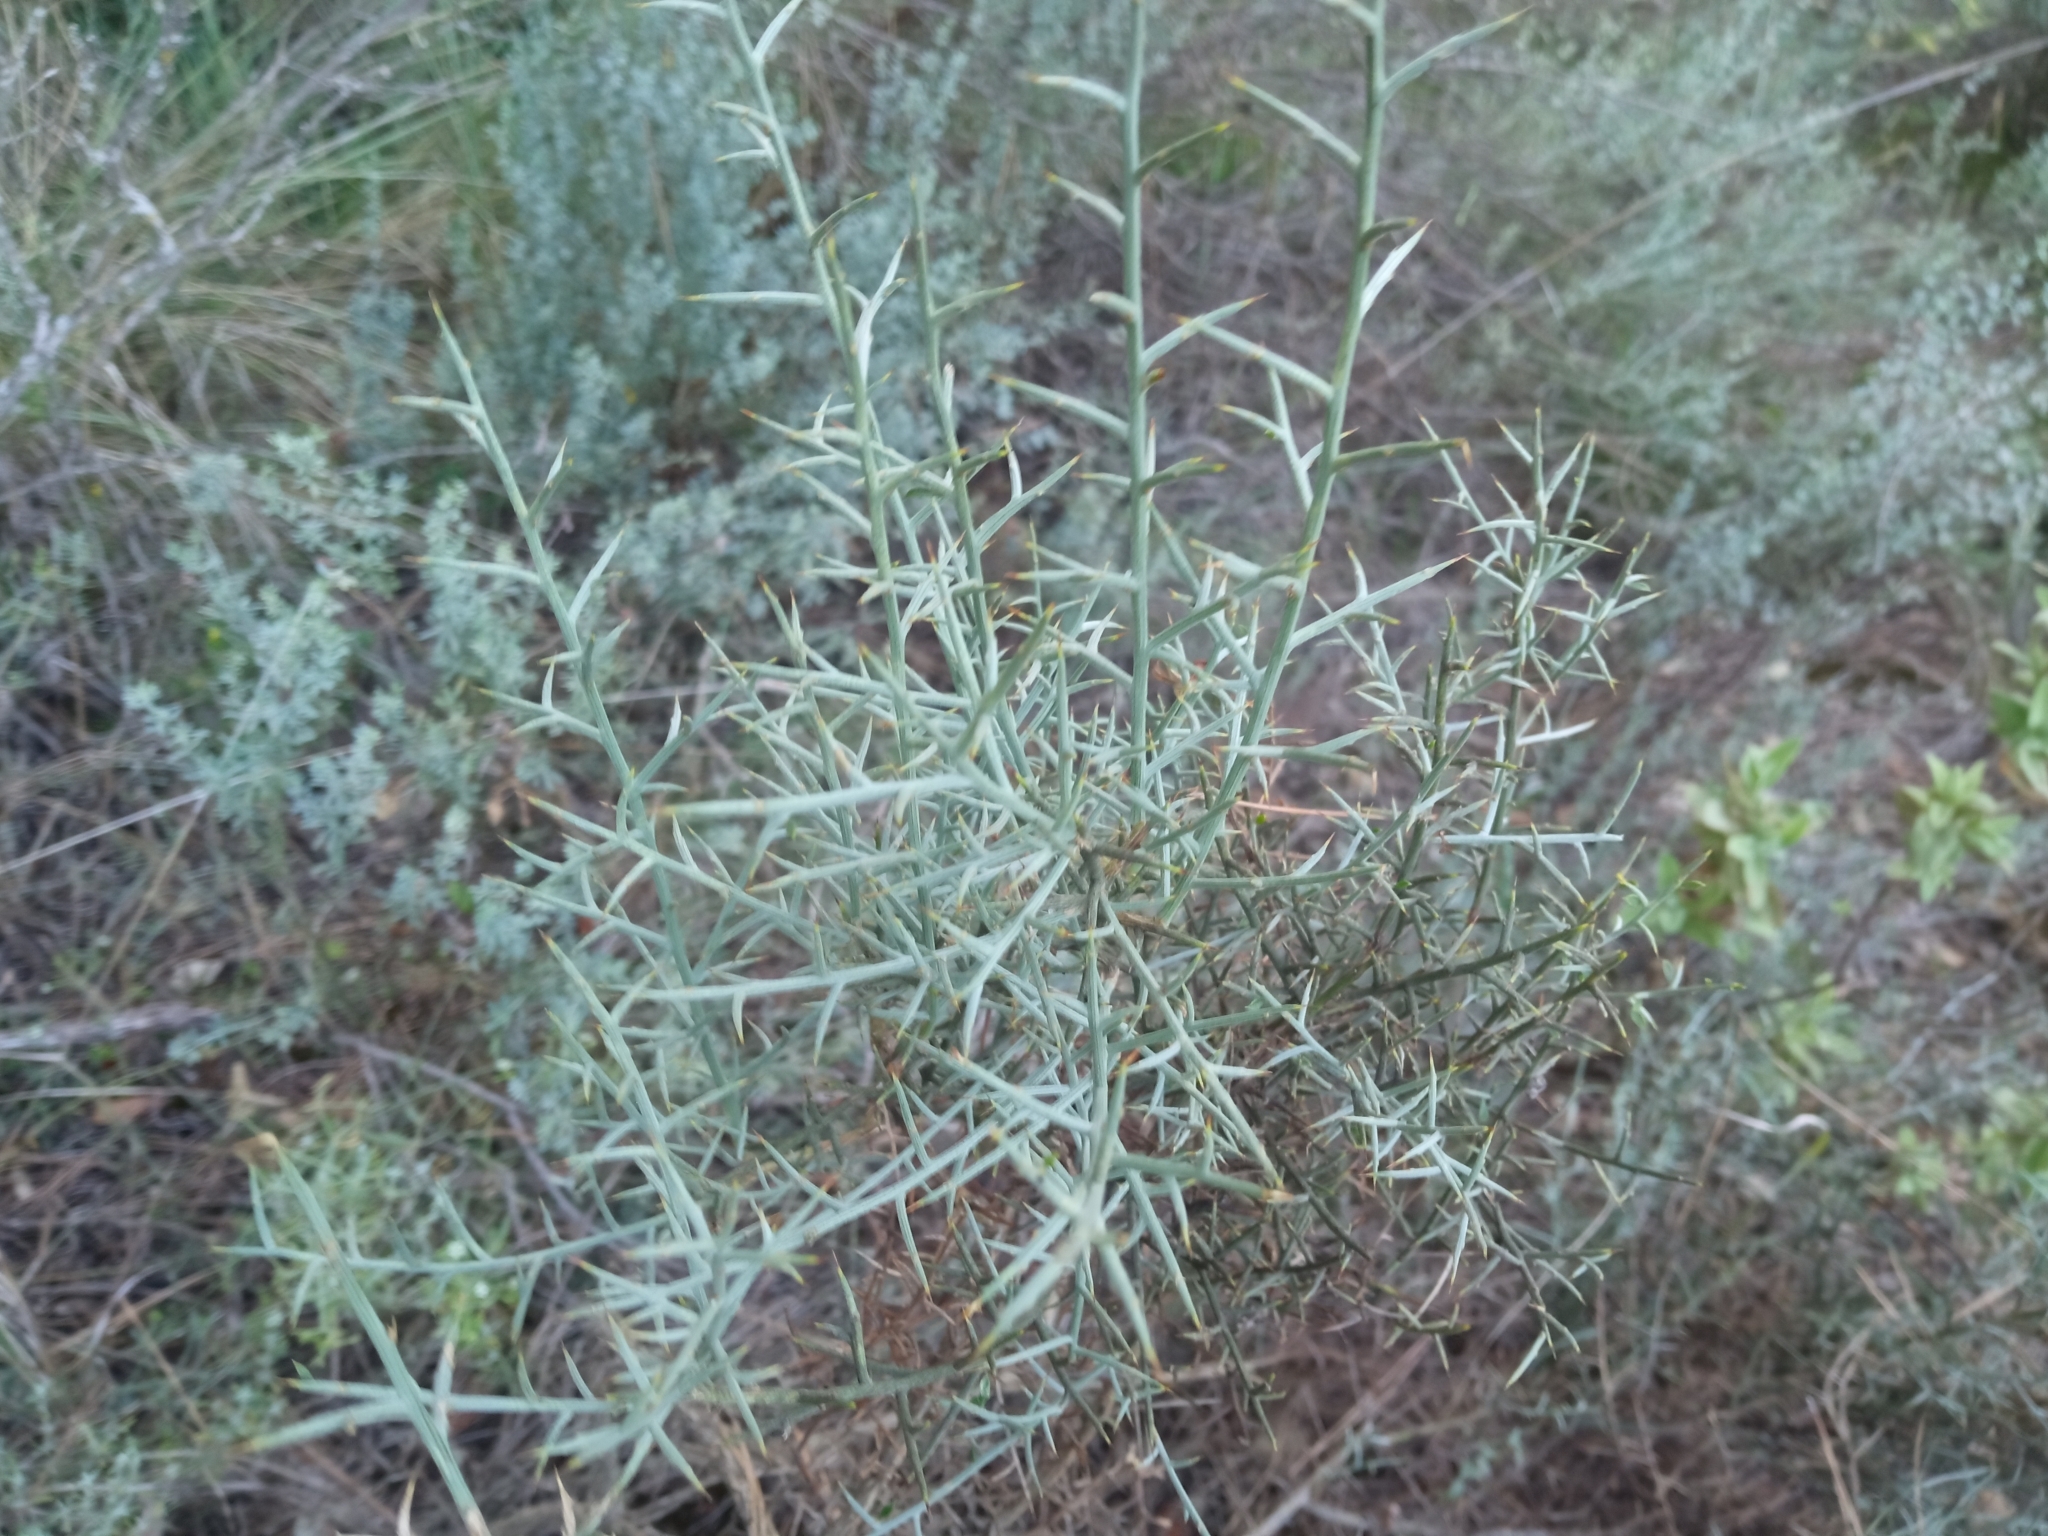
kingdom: Plantae
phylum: Tracheophyta
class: Magnoliopsida
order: Fabales
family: Fabaceae
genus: Genista
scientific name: Genista scorpius
